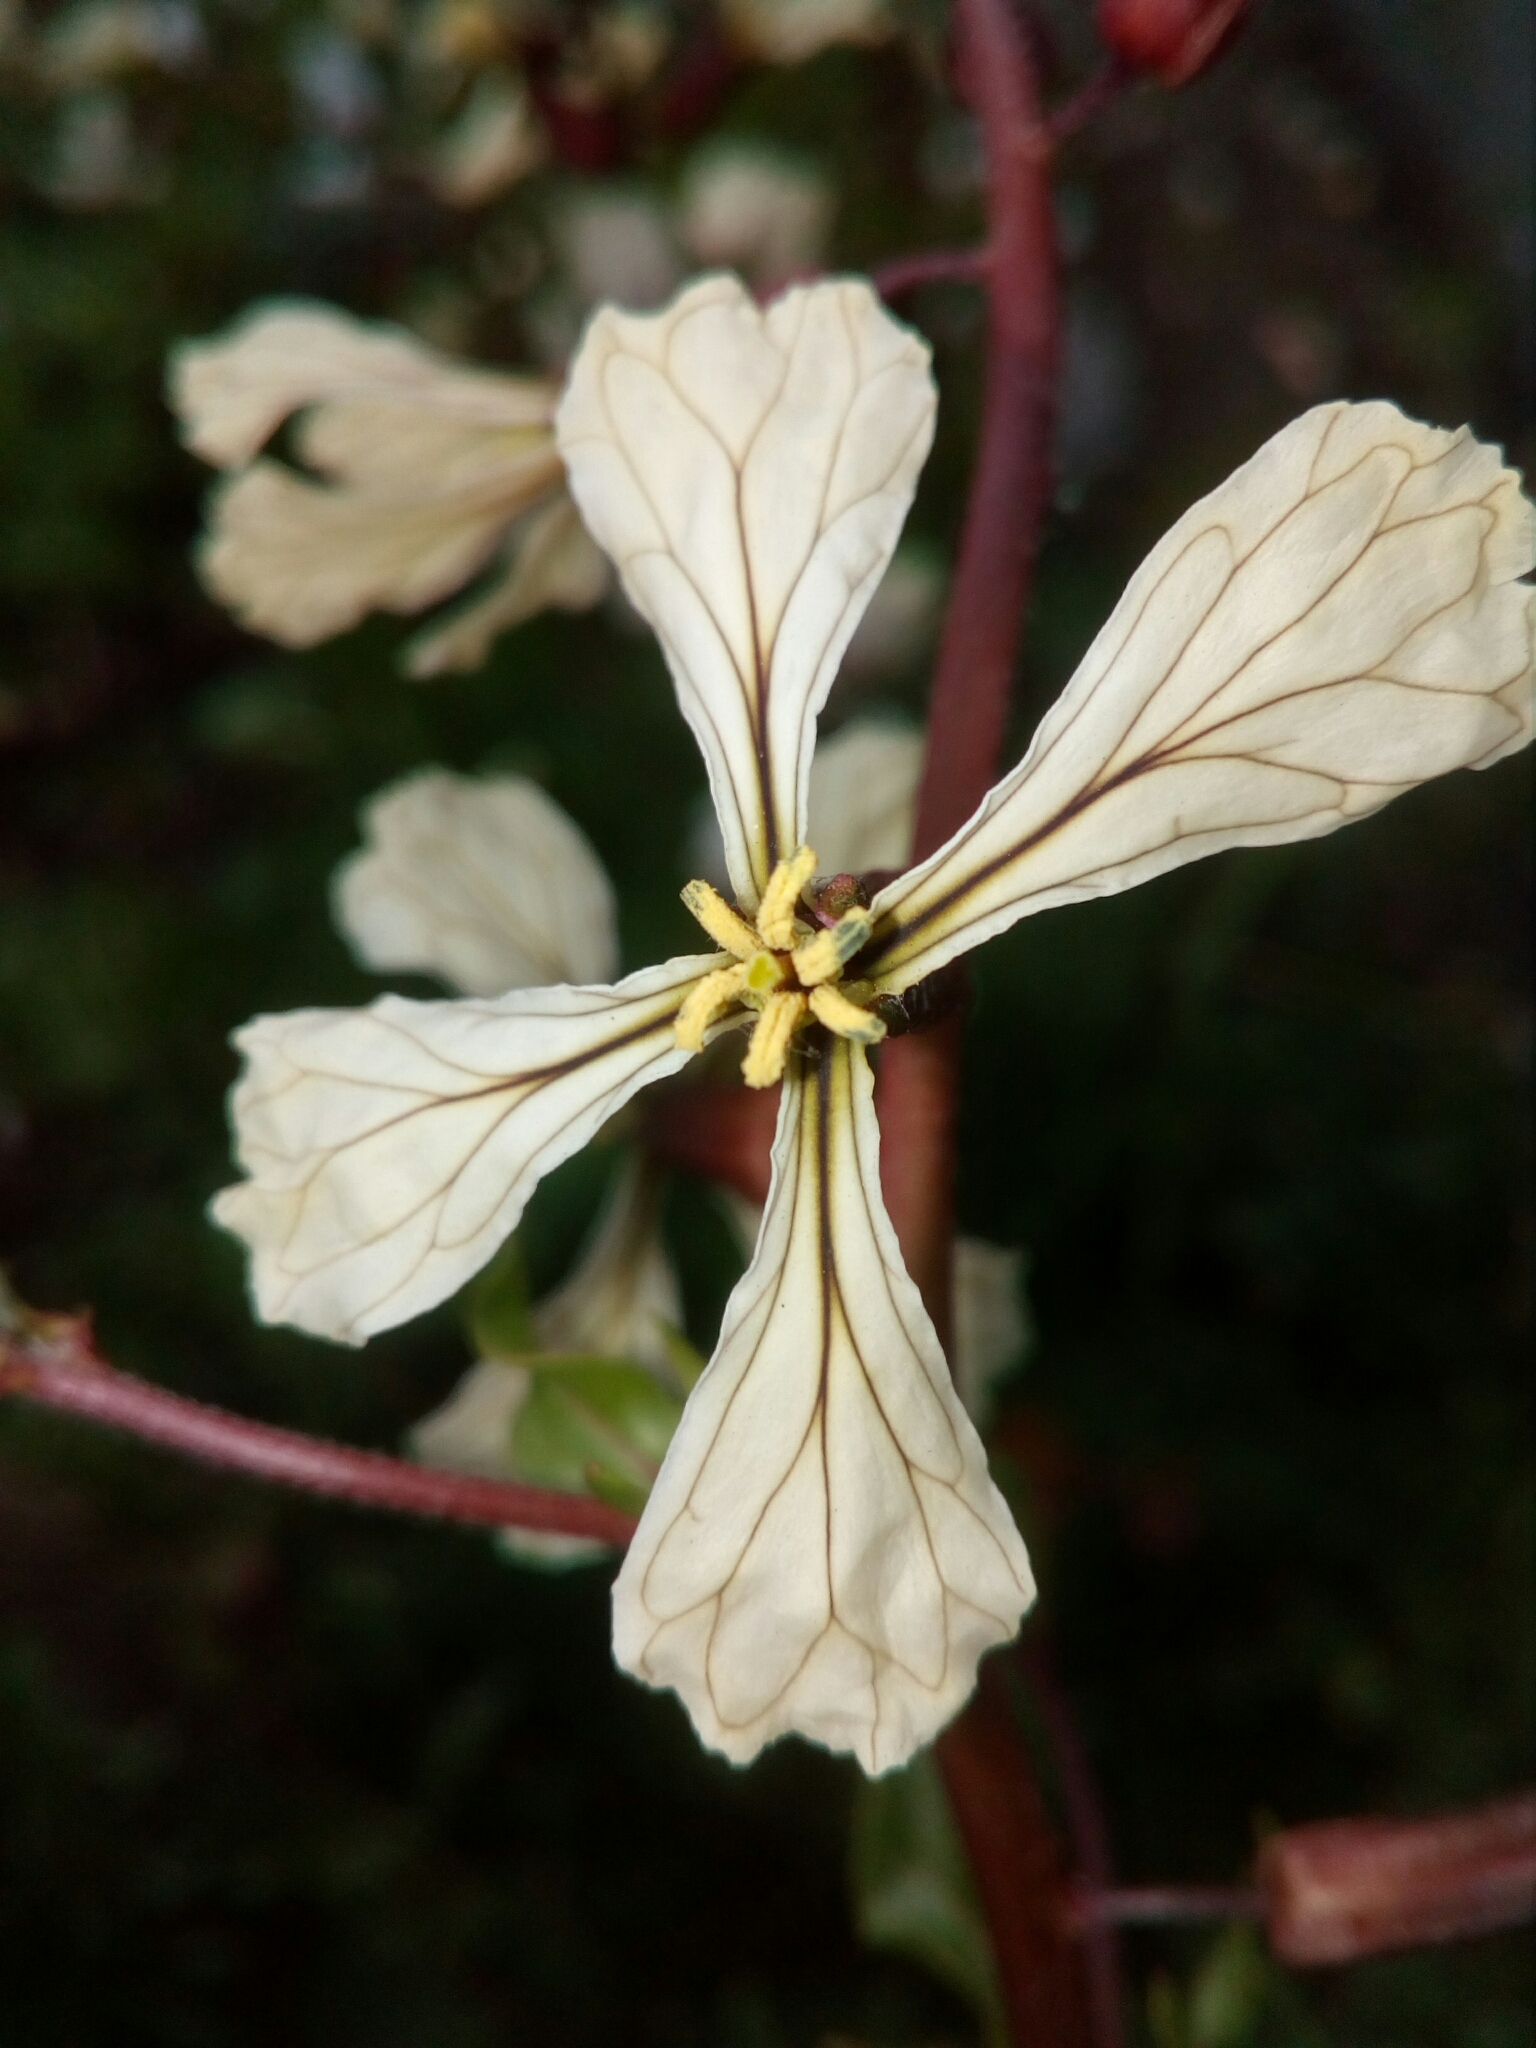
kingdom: Plantae
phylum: Tracheophyta
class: Magnoliopsida
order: Brassicales
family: Brassicaceae
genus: Eruca
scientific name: Eruca vesicaria
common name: Garden rocket
